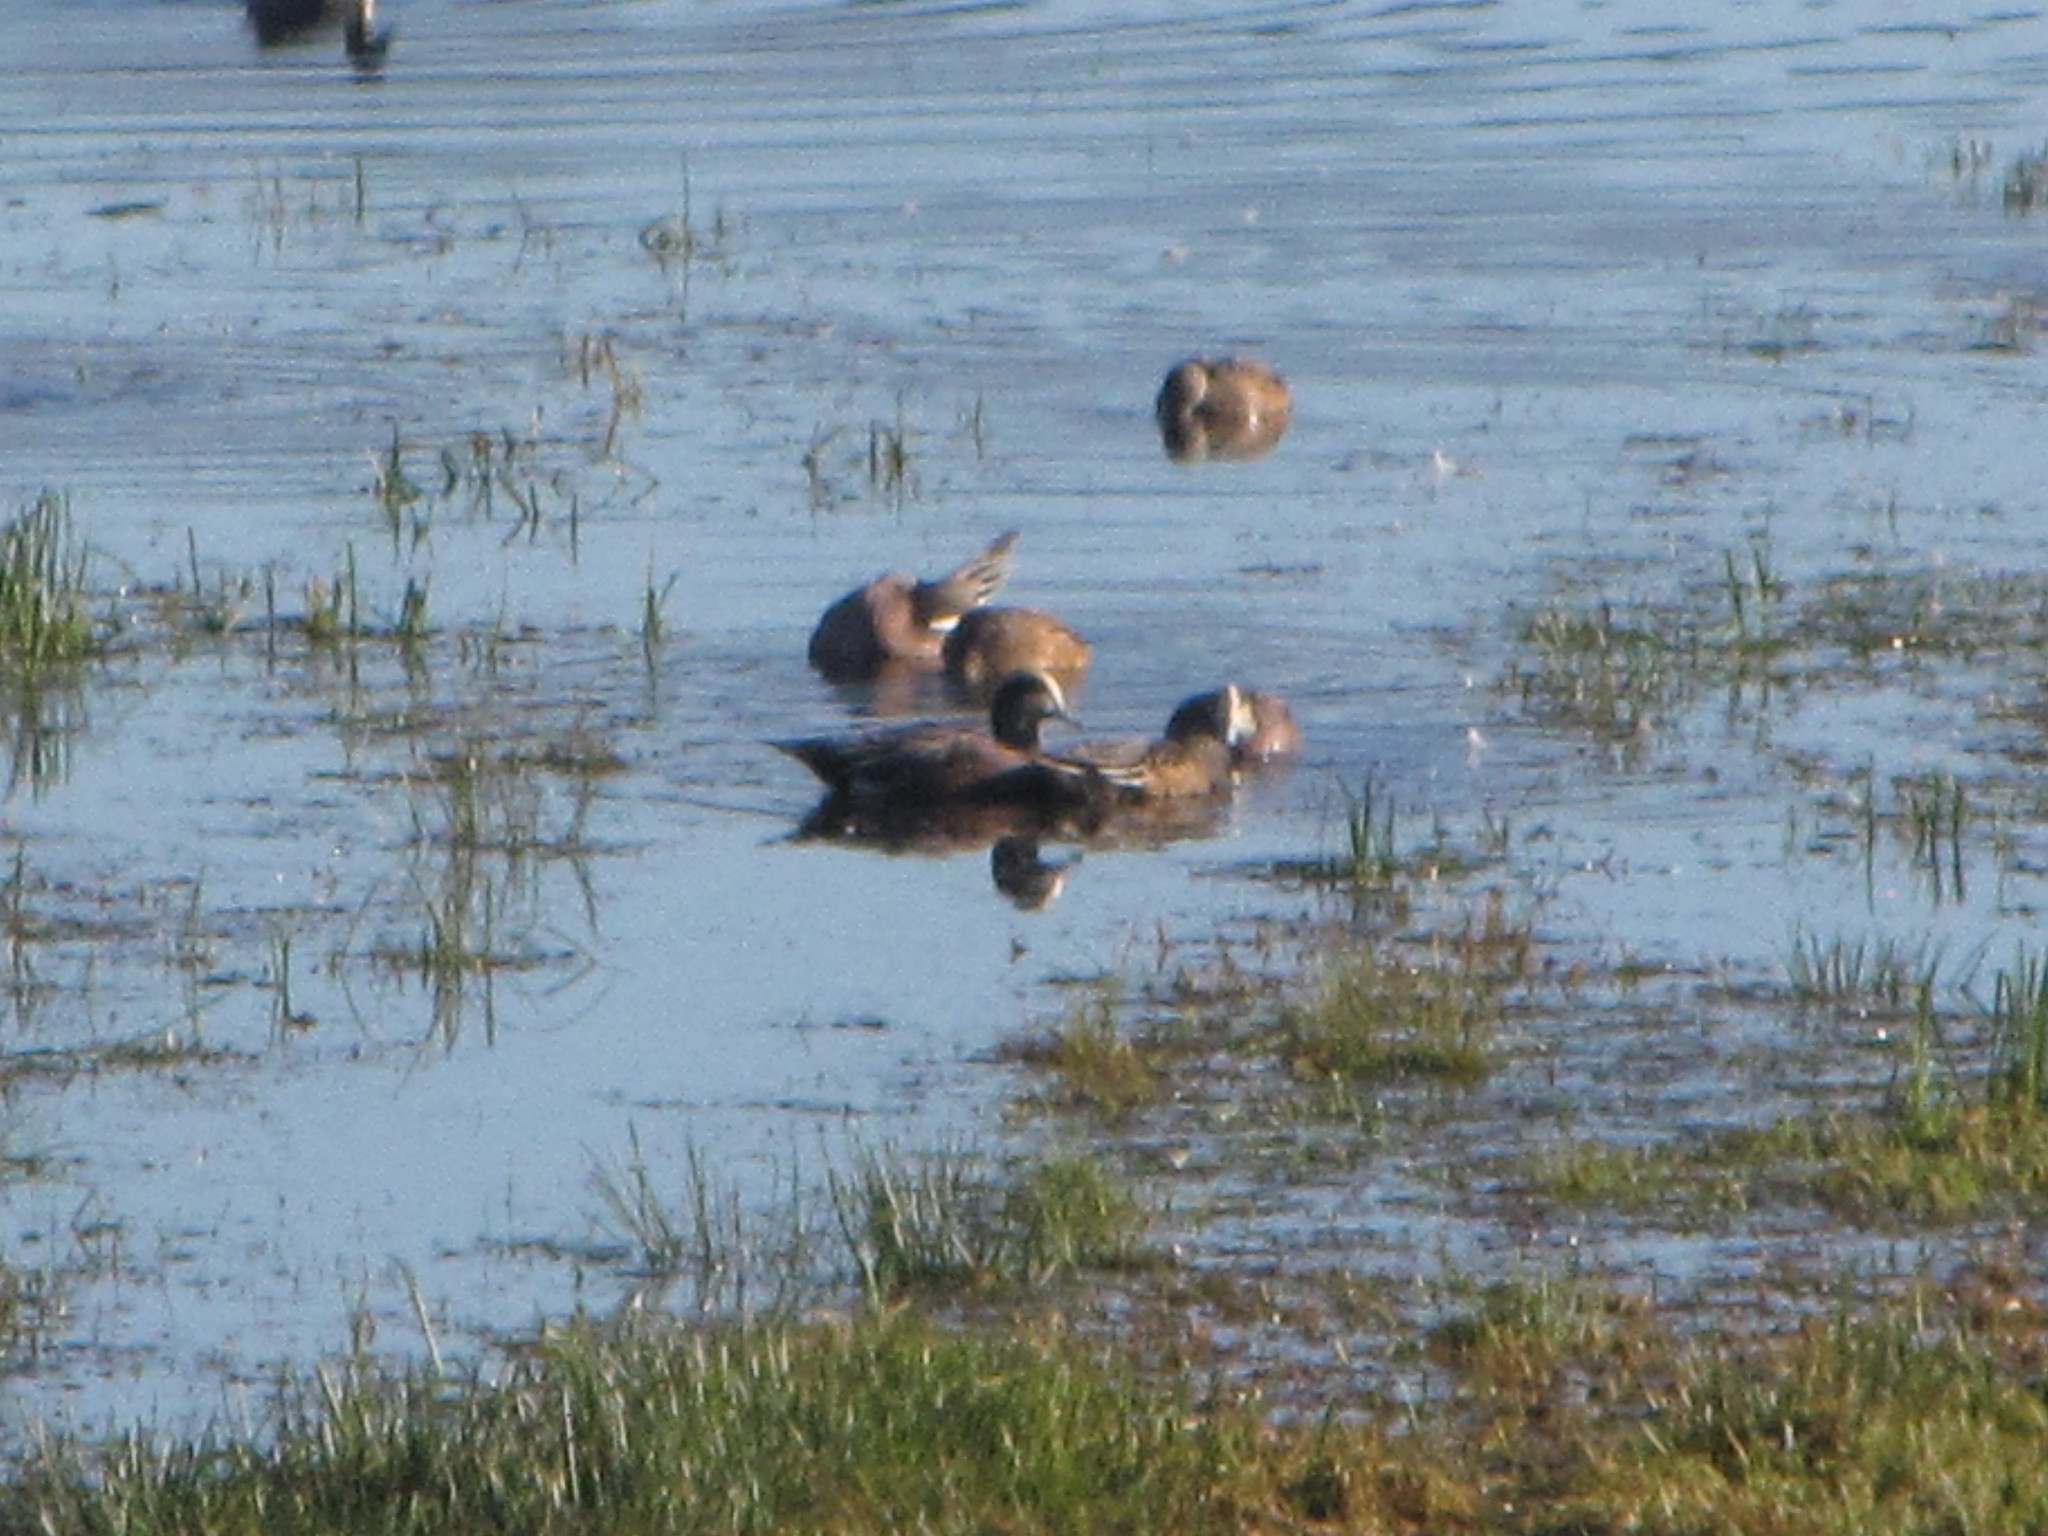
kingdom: Animalia
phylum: Chordata
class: Aves
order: Anseriformes
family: Anatidae
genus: Mareca
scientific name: Mareca americana
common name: American wigeon
